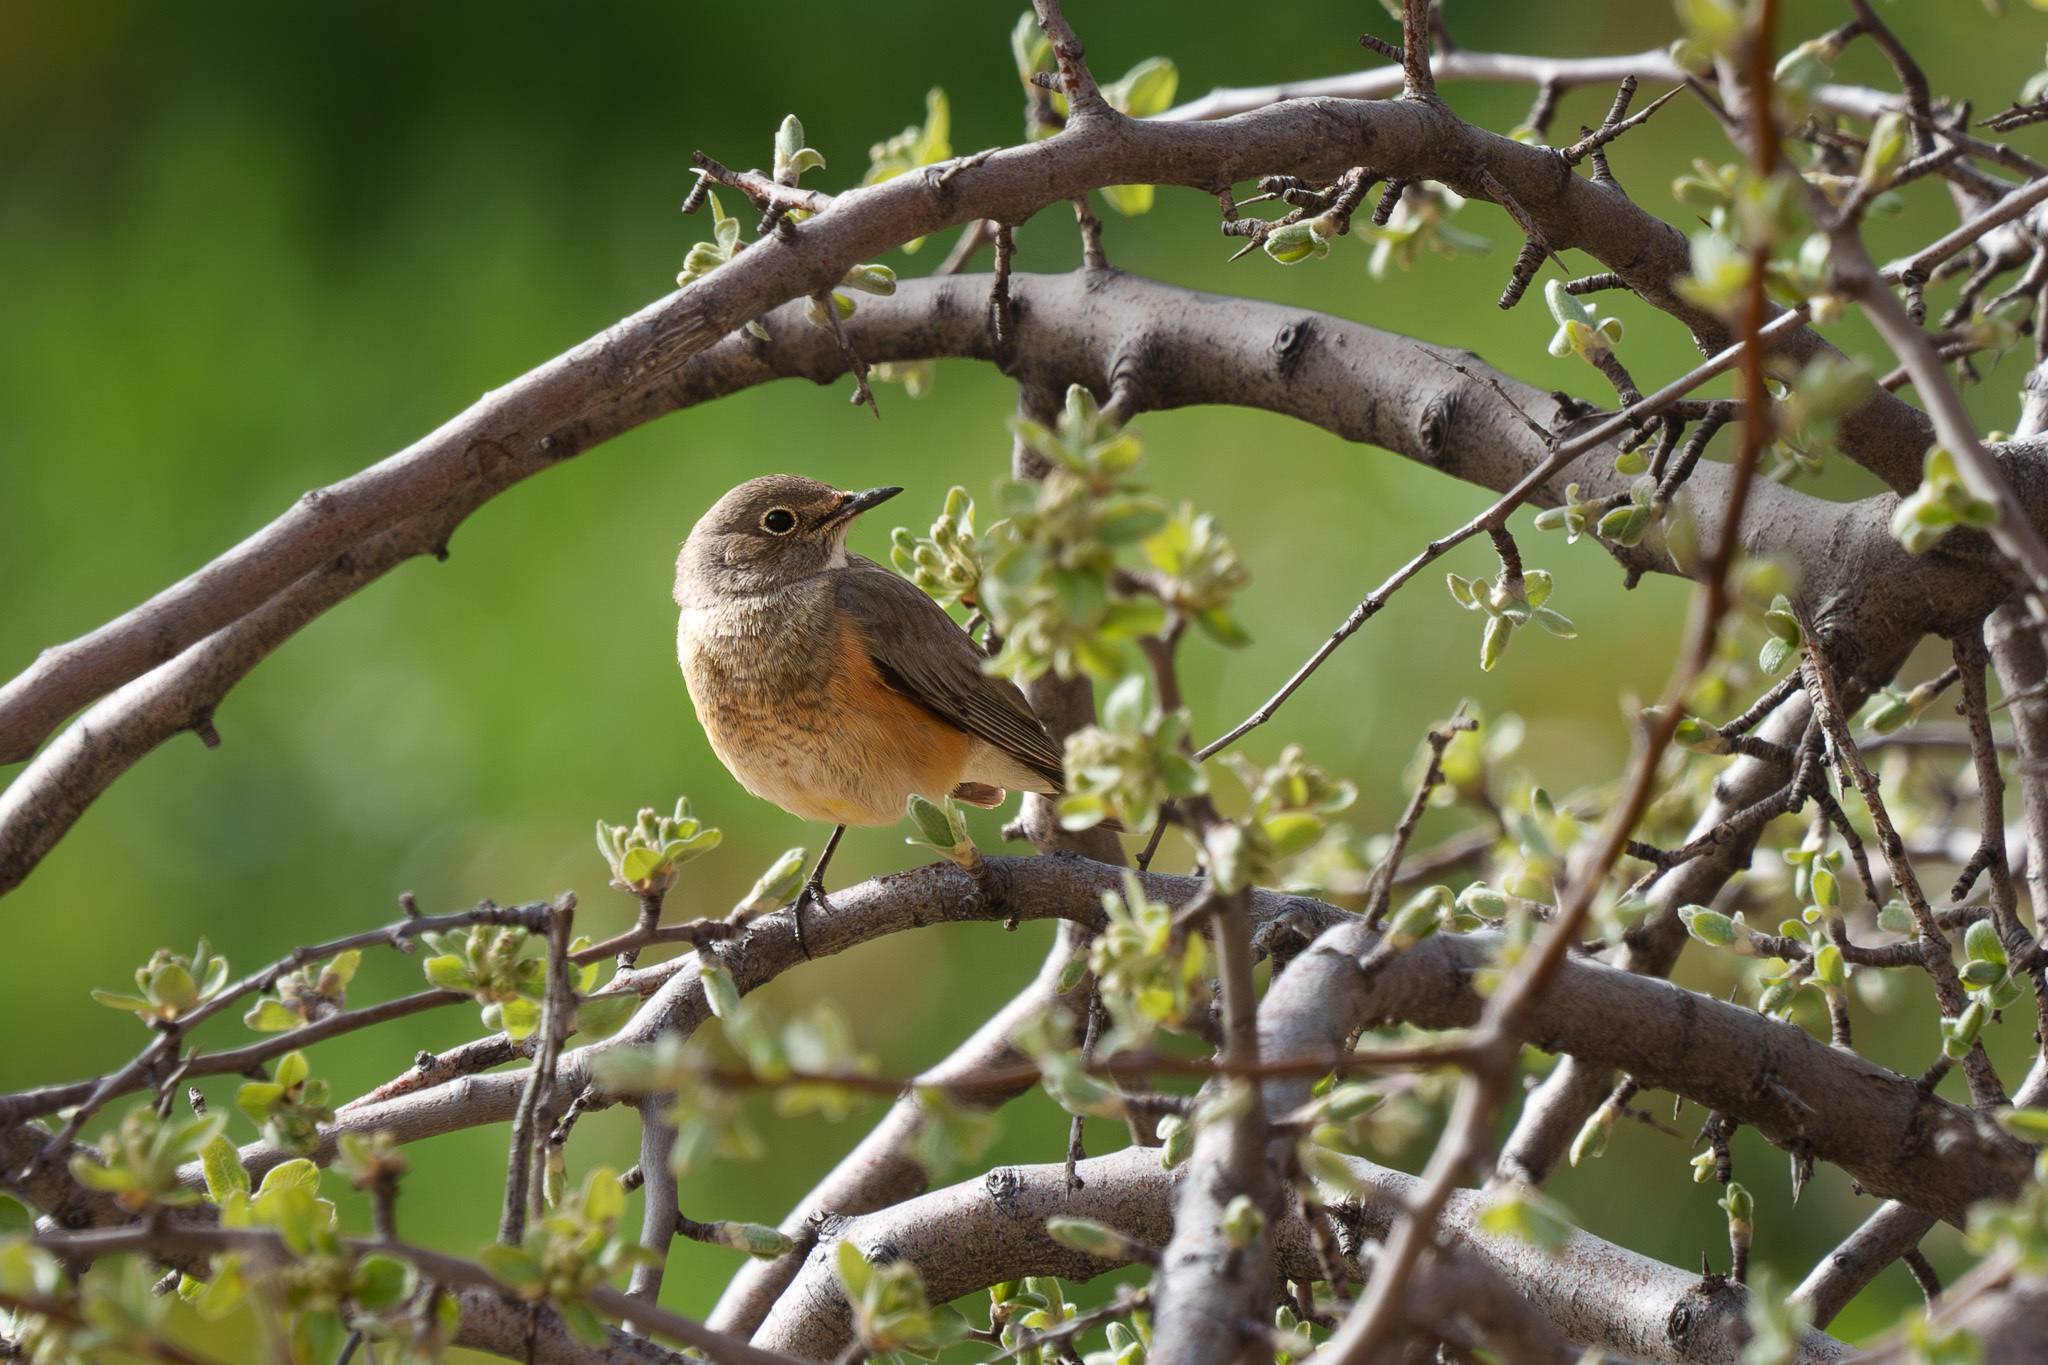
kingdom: Animalia
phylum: Chordata
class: Aves
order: Passeriformes
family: Muscicapidae
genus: Irania
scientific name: Irania gutturalis
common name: White-throated robin
